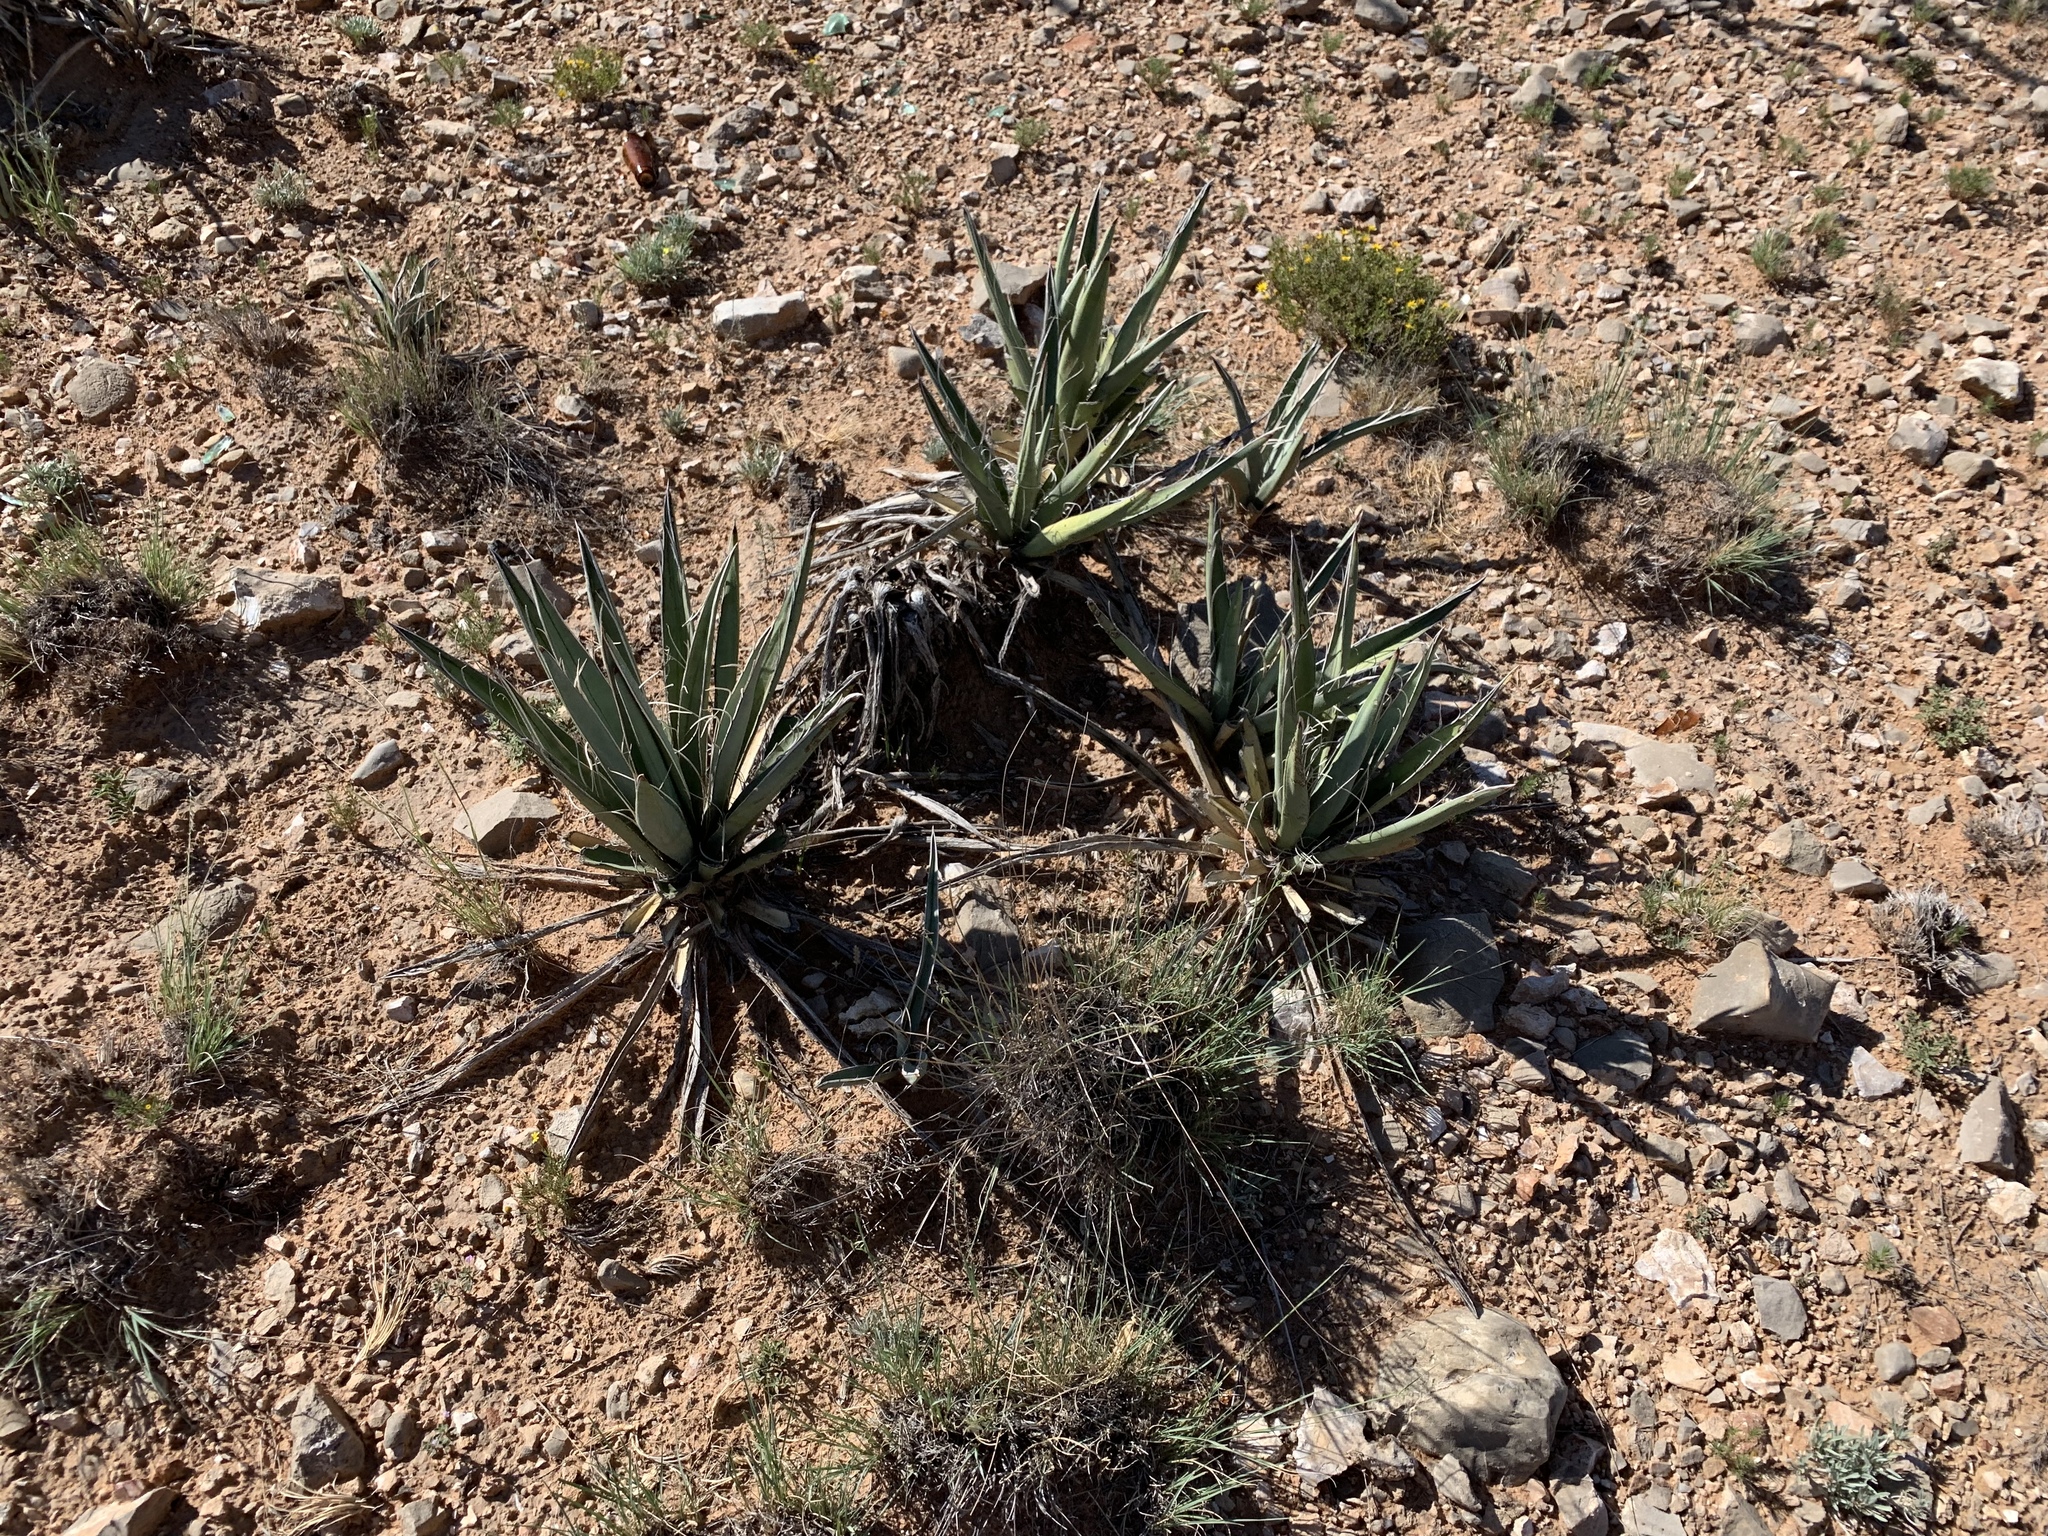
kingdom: Plantae
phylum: Tracheophyta
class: Liliopsida
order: Asparagales
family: Asparagaceae
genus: Yucca
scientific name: Yucca baccata
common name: Banana yucca
